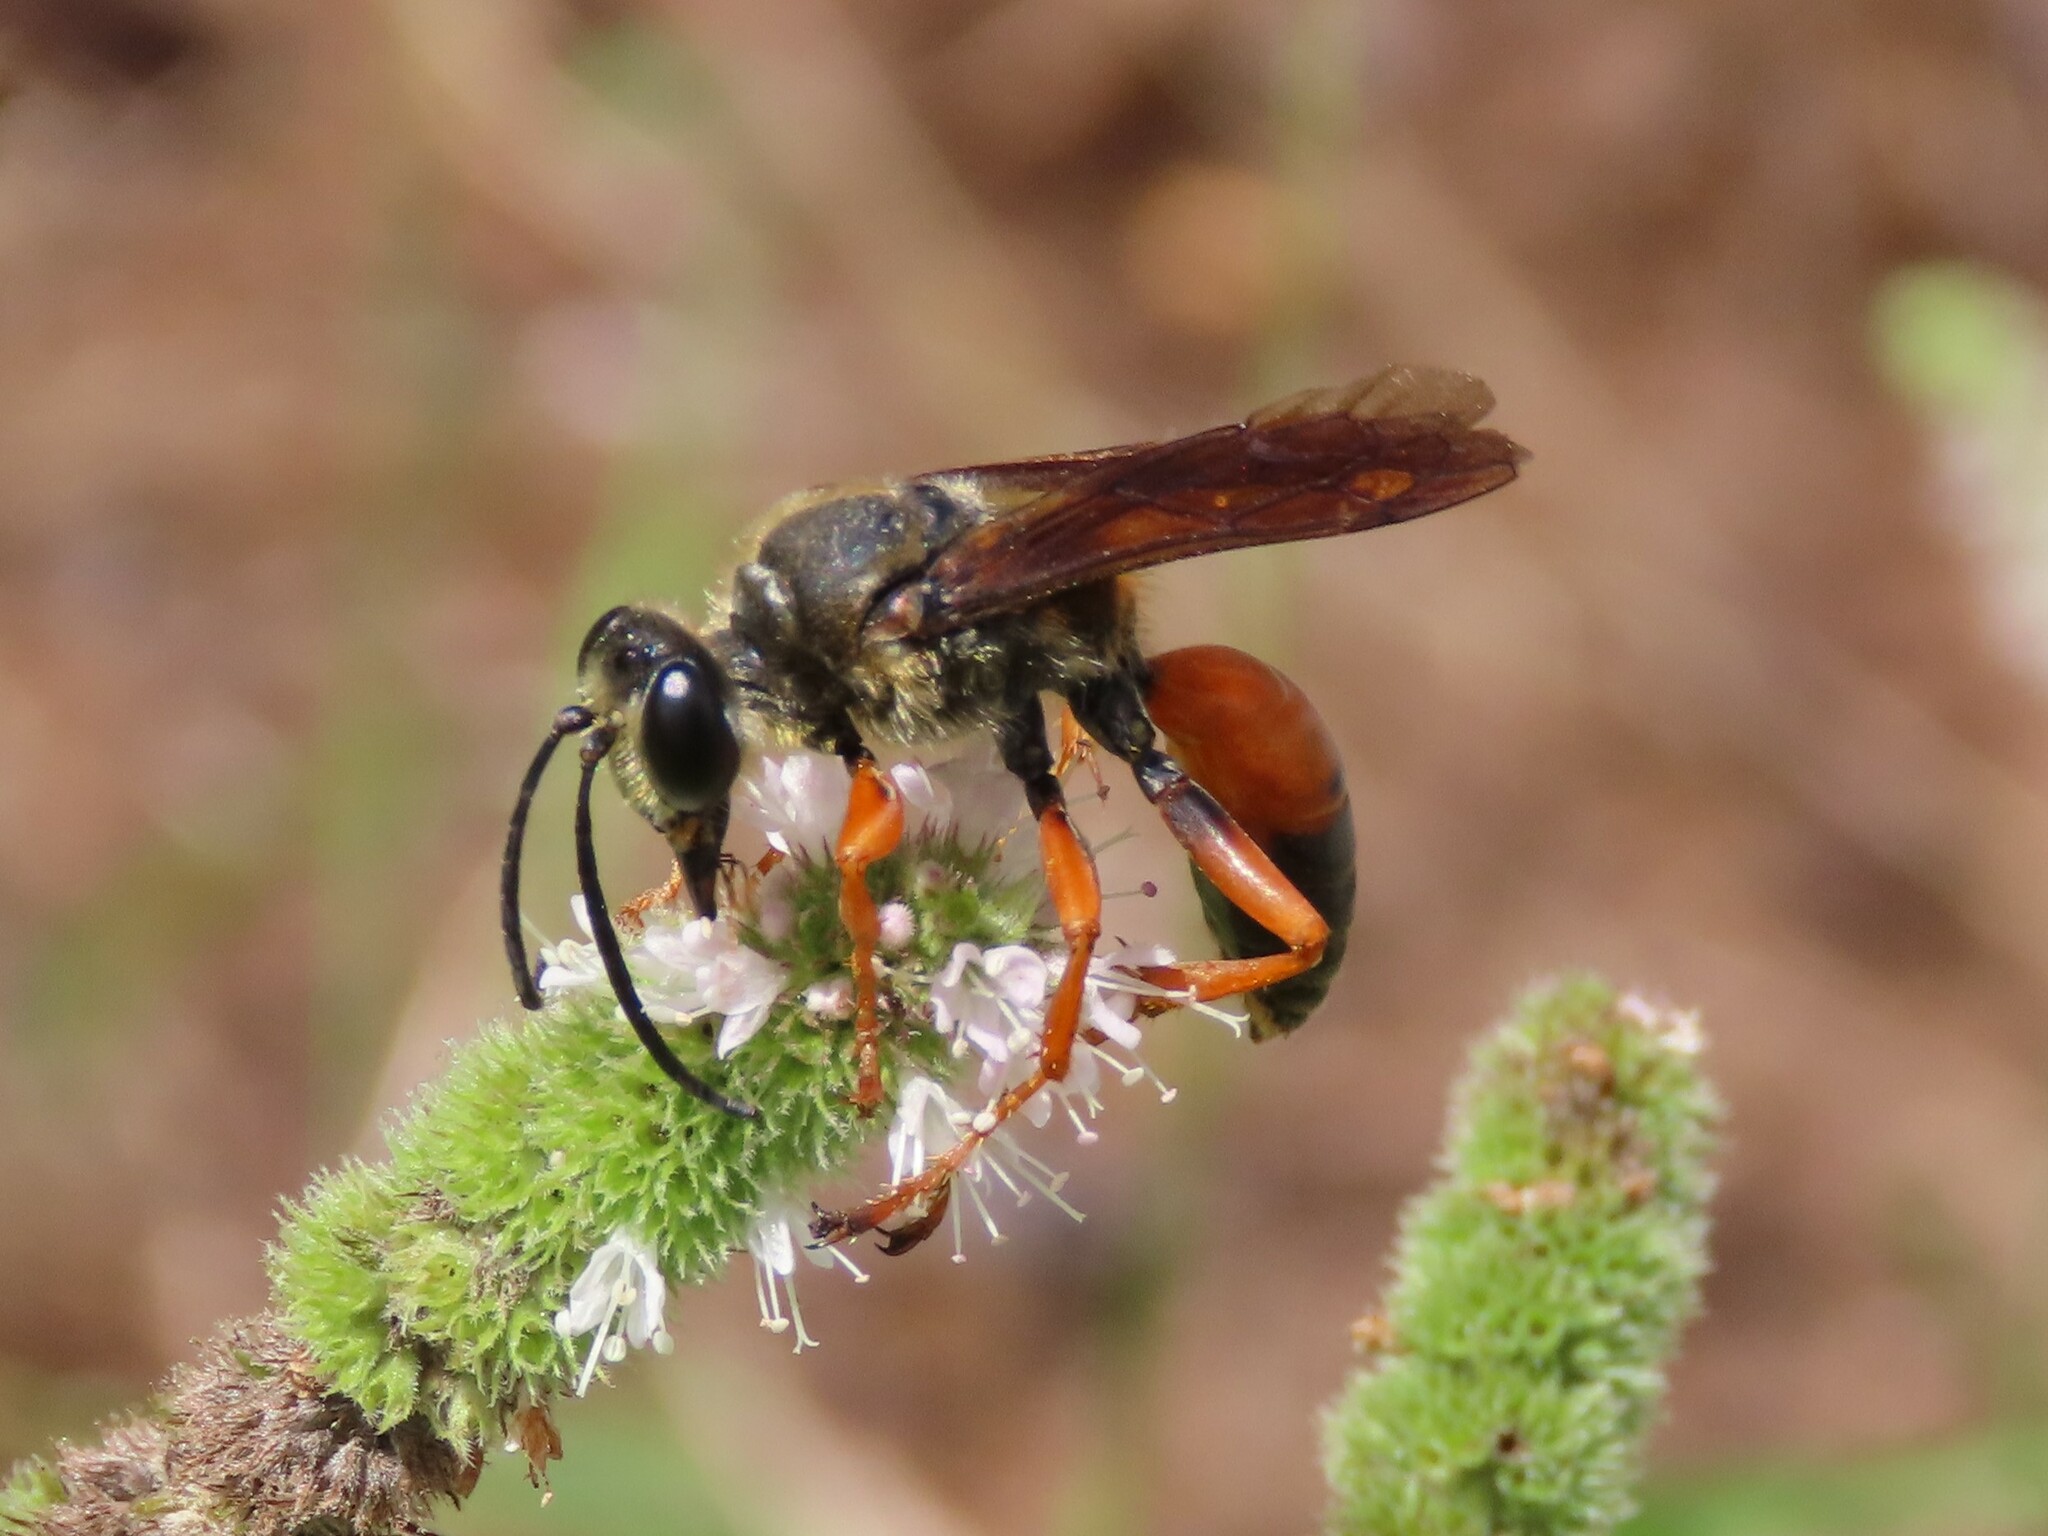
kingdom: Animalia
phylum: Arthropoda
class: Insecta
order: Hymenoptera
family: Sphecidae
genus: Sphex
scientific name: Sphex ichneumoneus
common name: Great golden digger wasp
